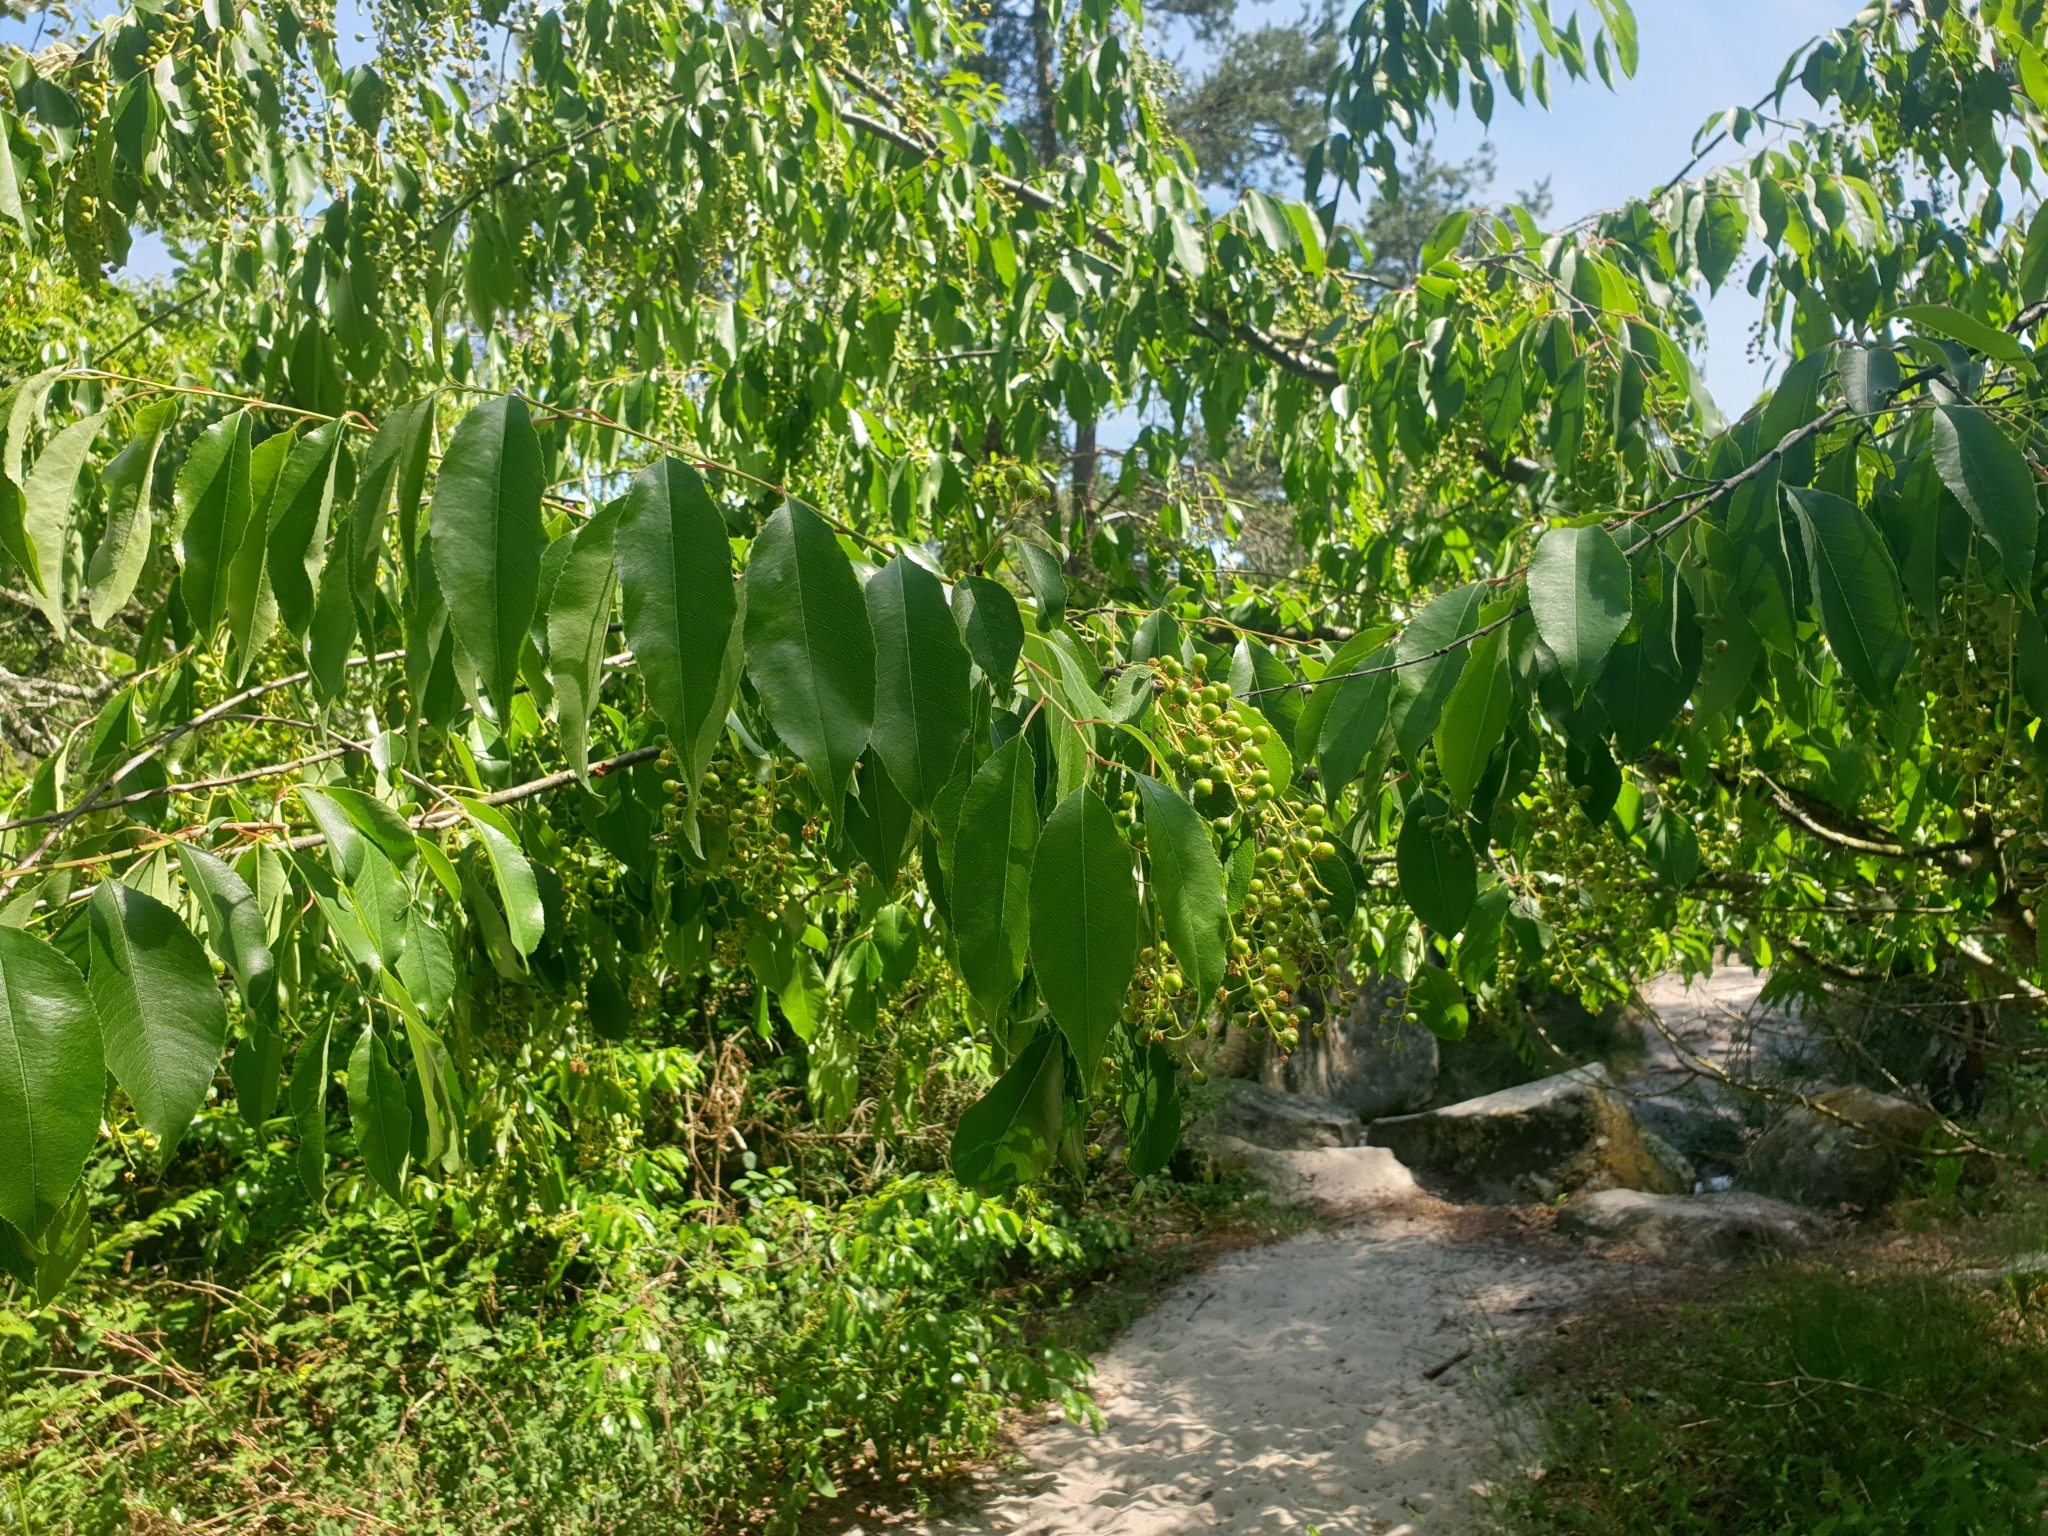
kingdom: Plantae
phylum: Tracheophyta
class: Magnoliopsida
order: Rosales
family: Rosaceae
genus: Prunus
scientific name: Prunus serotina
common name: Black cherry
